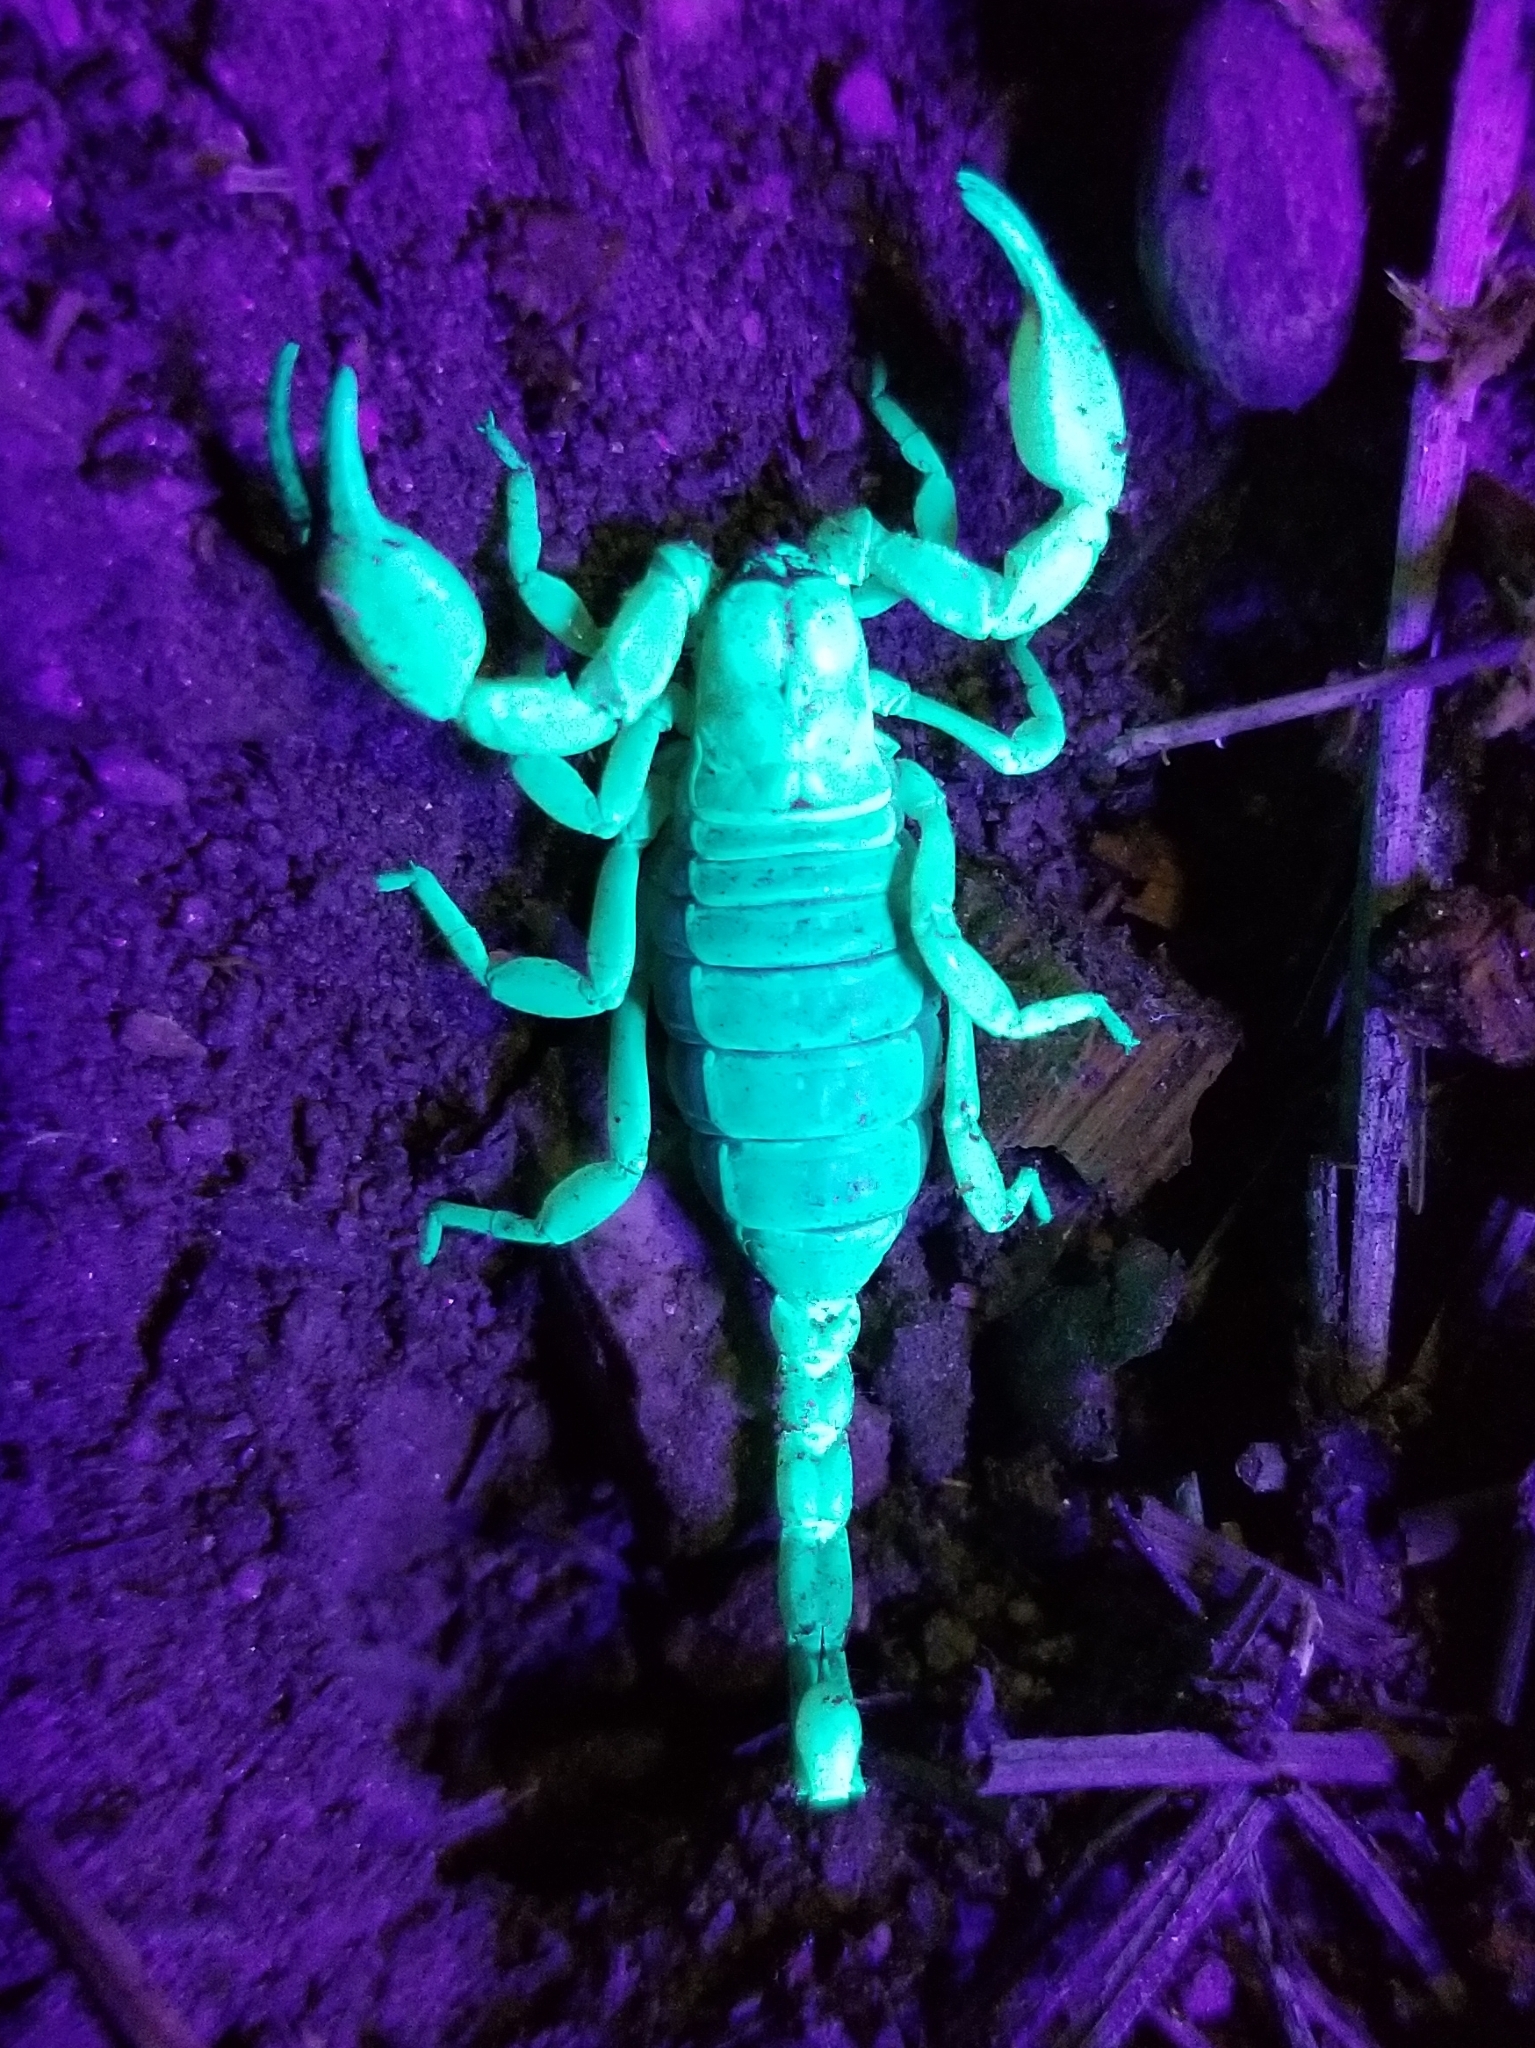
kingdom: Animalia
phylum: Arthropoda
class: Arachnida
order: Scorpiones
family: Chactidae
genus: Anuroctonus
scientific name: Anuroctonus pococki
